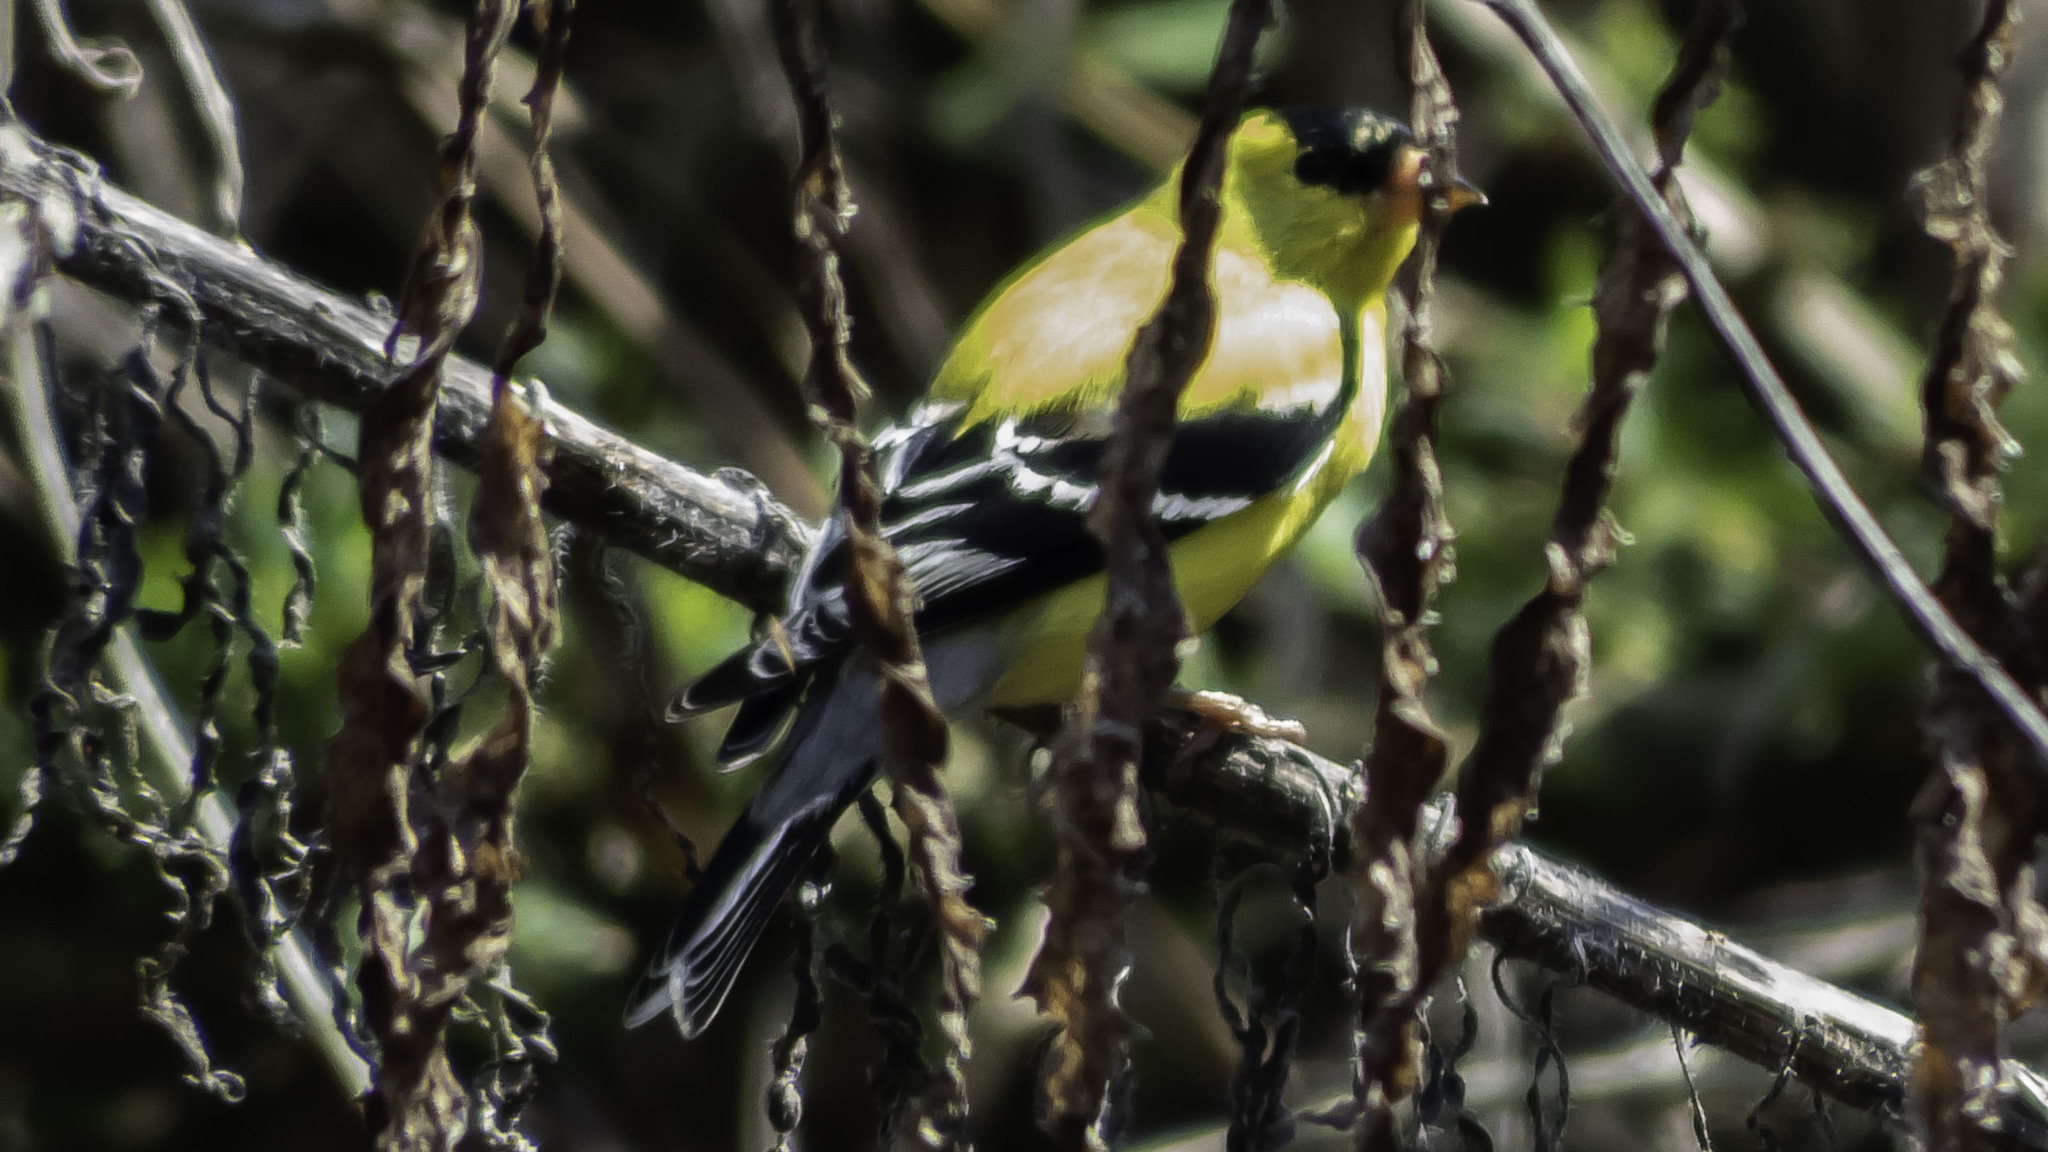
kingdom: Animalia
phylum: Chordata
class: Aves
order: Passeriformes
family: Fringillidae
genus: Spinus
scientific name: Spinus tristis
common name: American goldfinch
